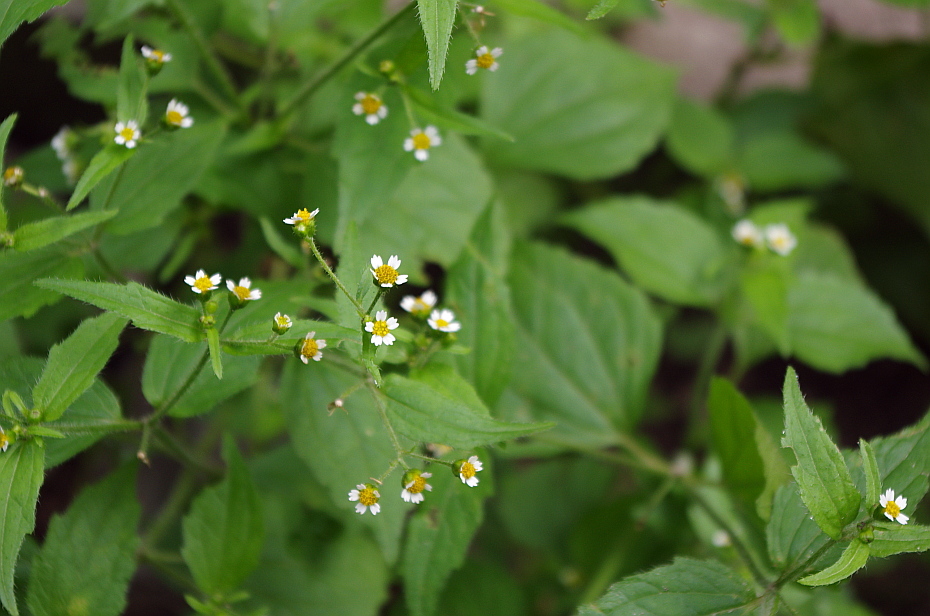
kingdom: Plantae
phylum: Tracheophyta
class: Magnoliopsida
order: Asterales
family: Asteraceae
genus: Galinsoga
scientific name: Galinsoga quadriradiata
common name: Shaggy soldier
